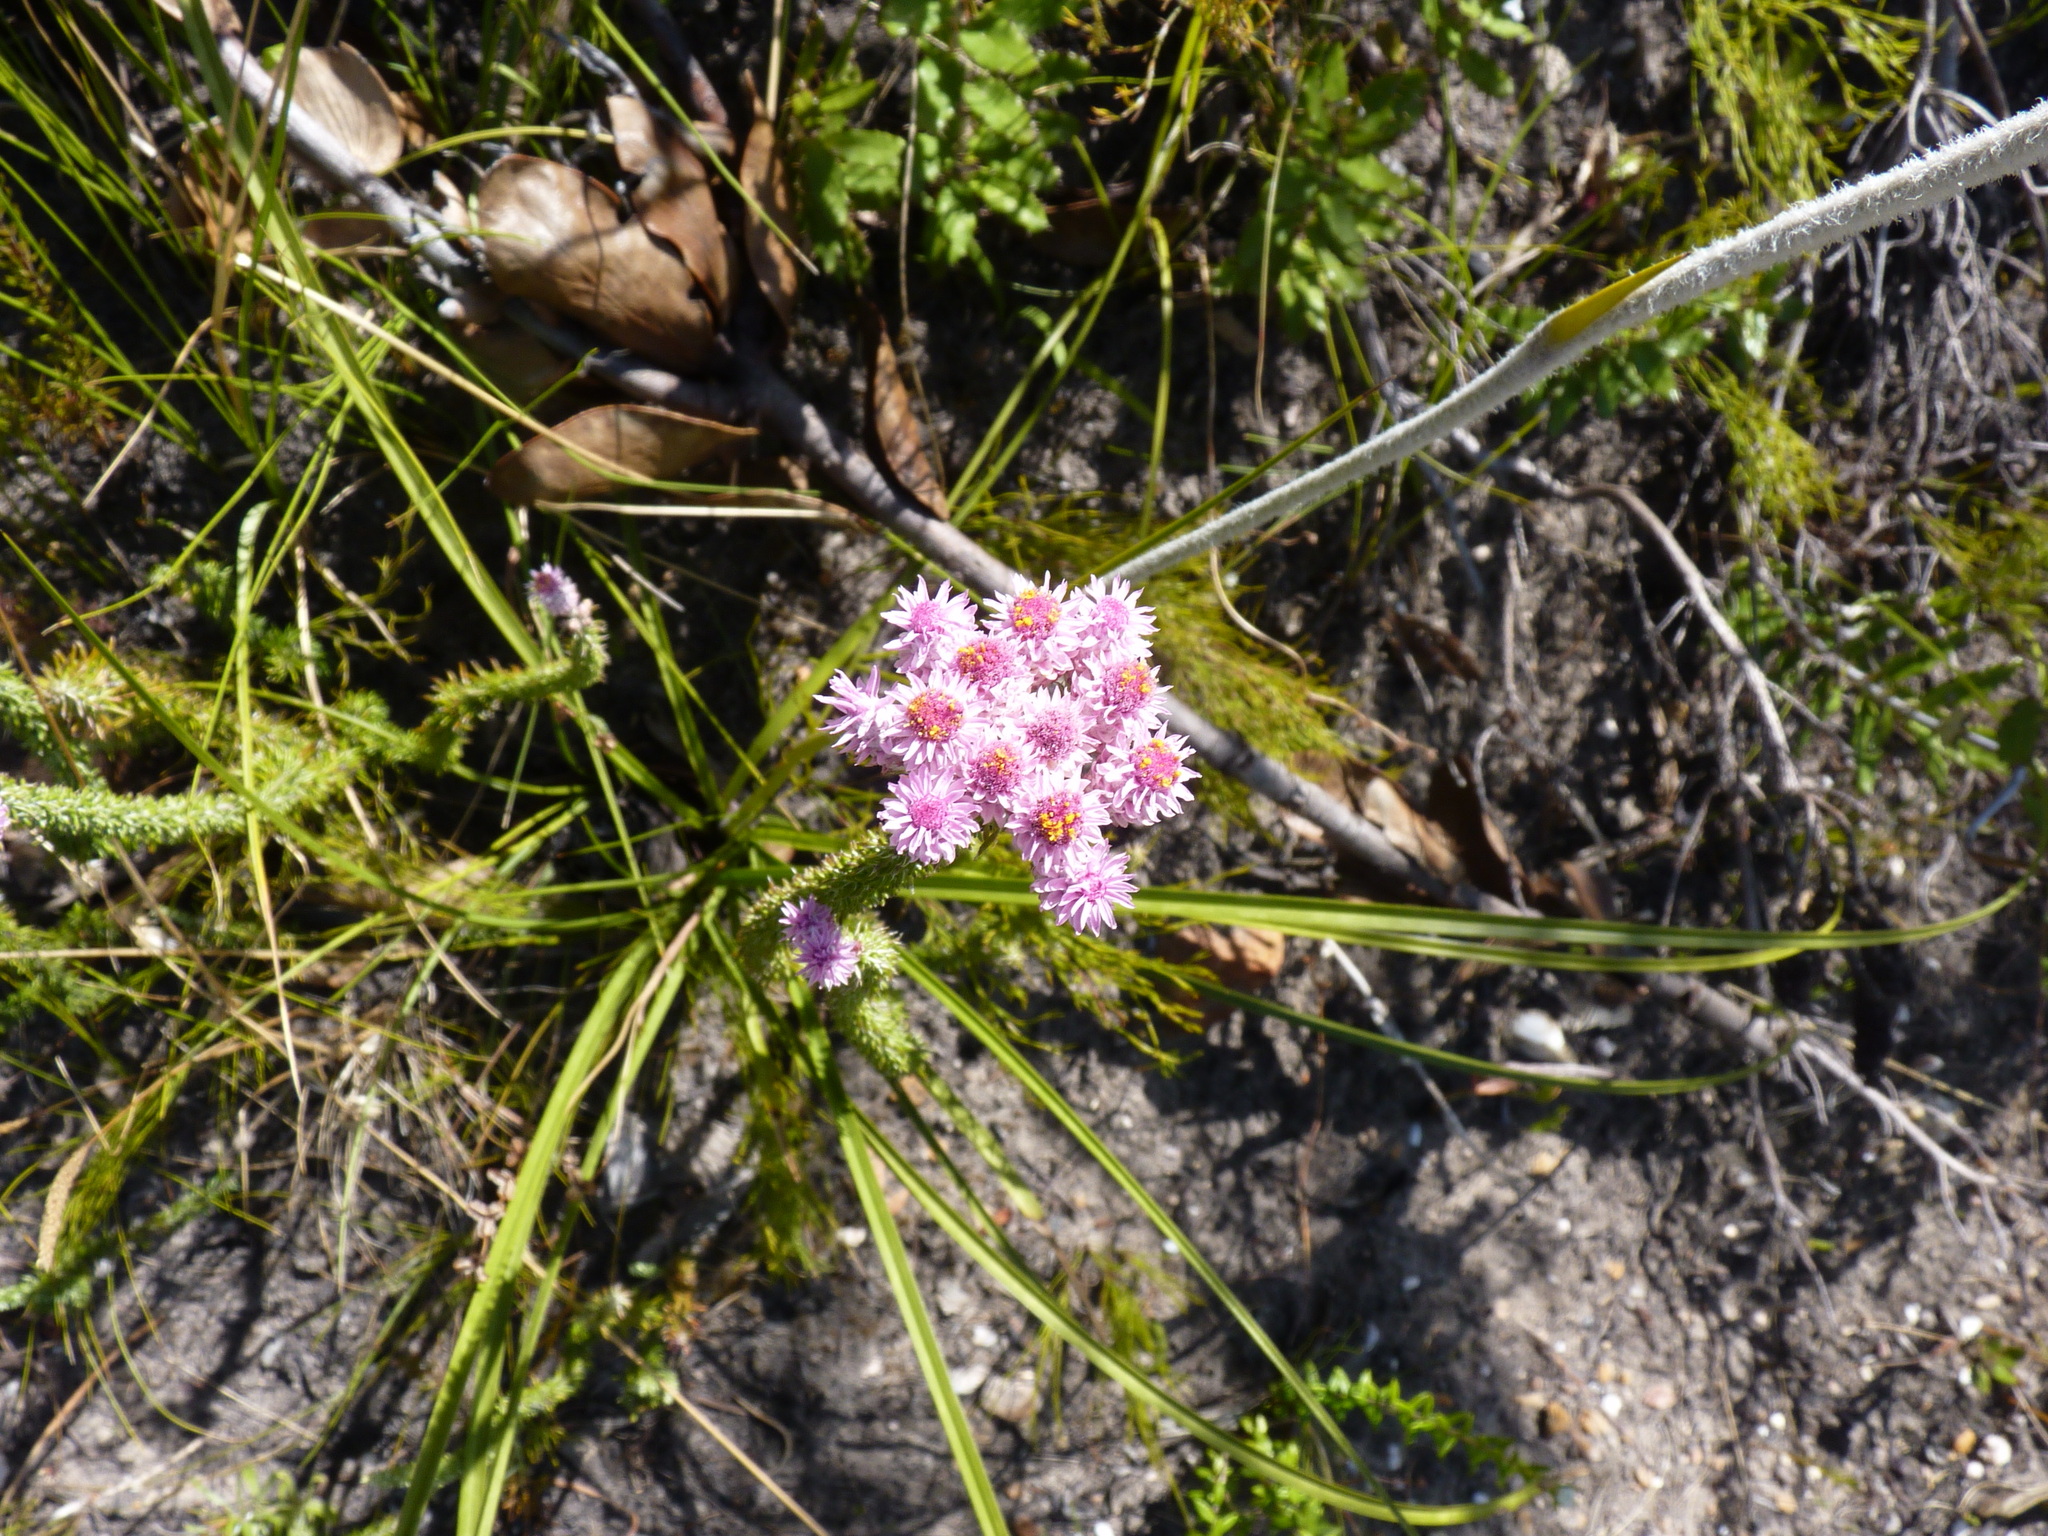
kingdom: Plantae
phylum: Tracheophyta
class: Magnoliopsida
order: Asterales
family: Asteraceae
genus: Lachnospermum
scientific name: Lachnospermum umbellatum
